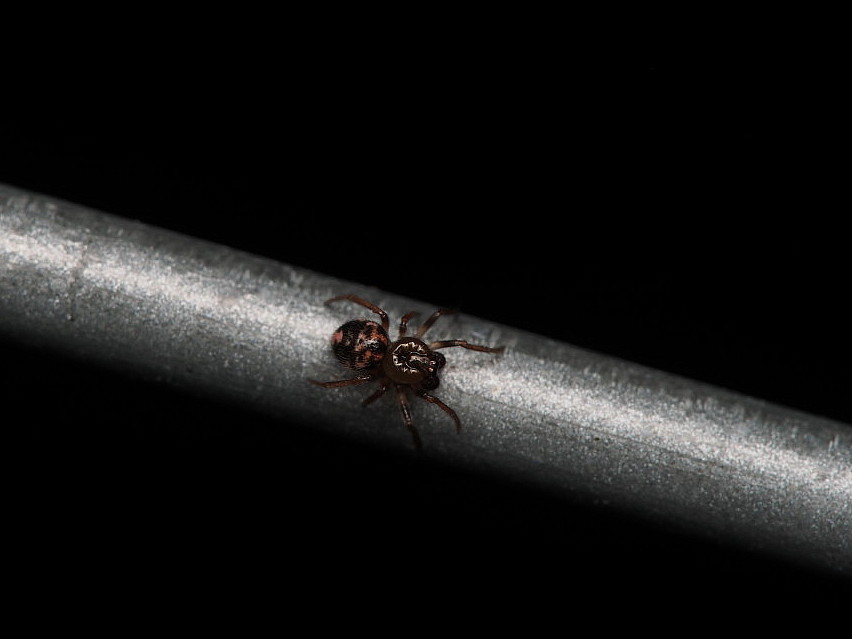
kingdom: Animalia
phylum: Arthropoda
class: Arachnida
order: Araneae
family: Theridiidae
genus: Phycosoma
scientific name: Phycosoma oecobioides
